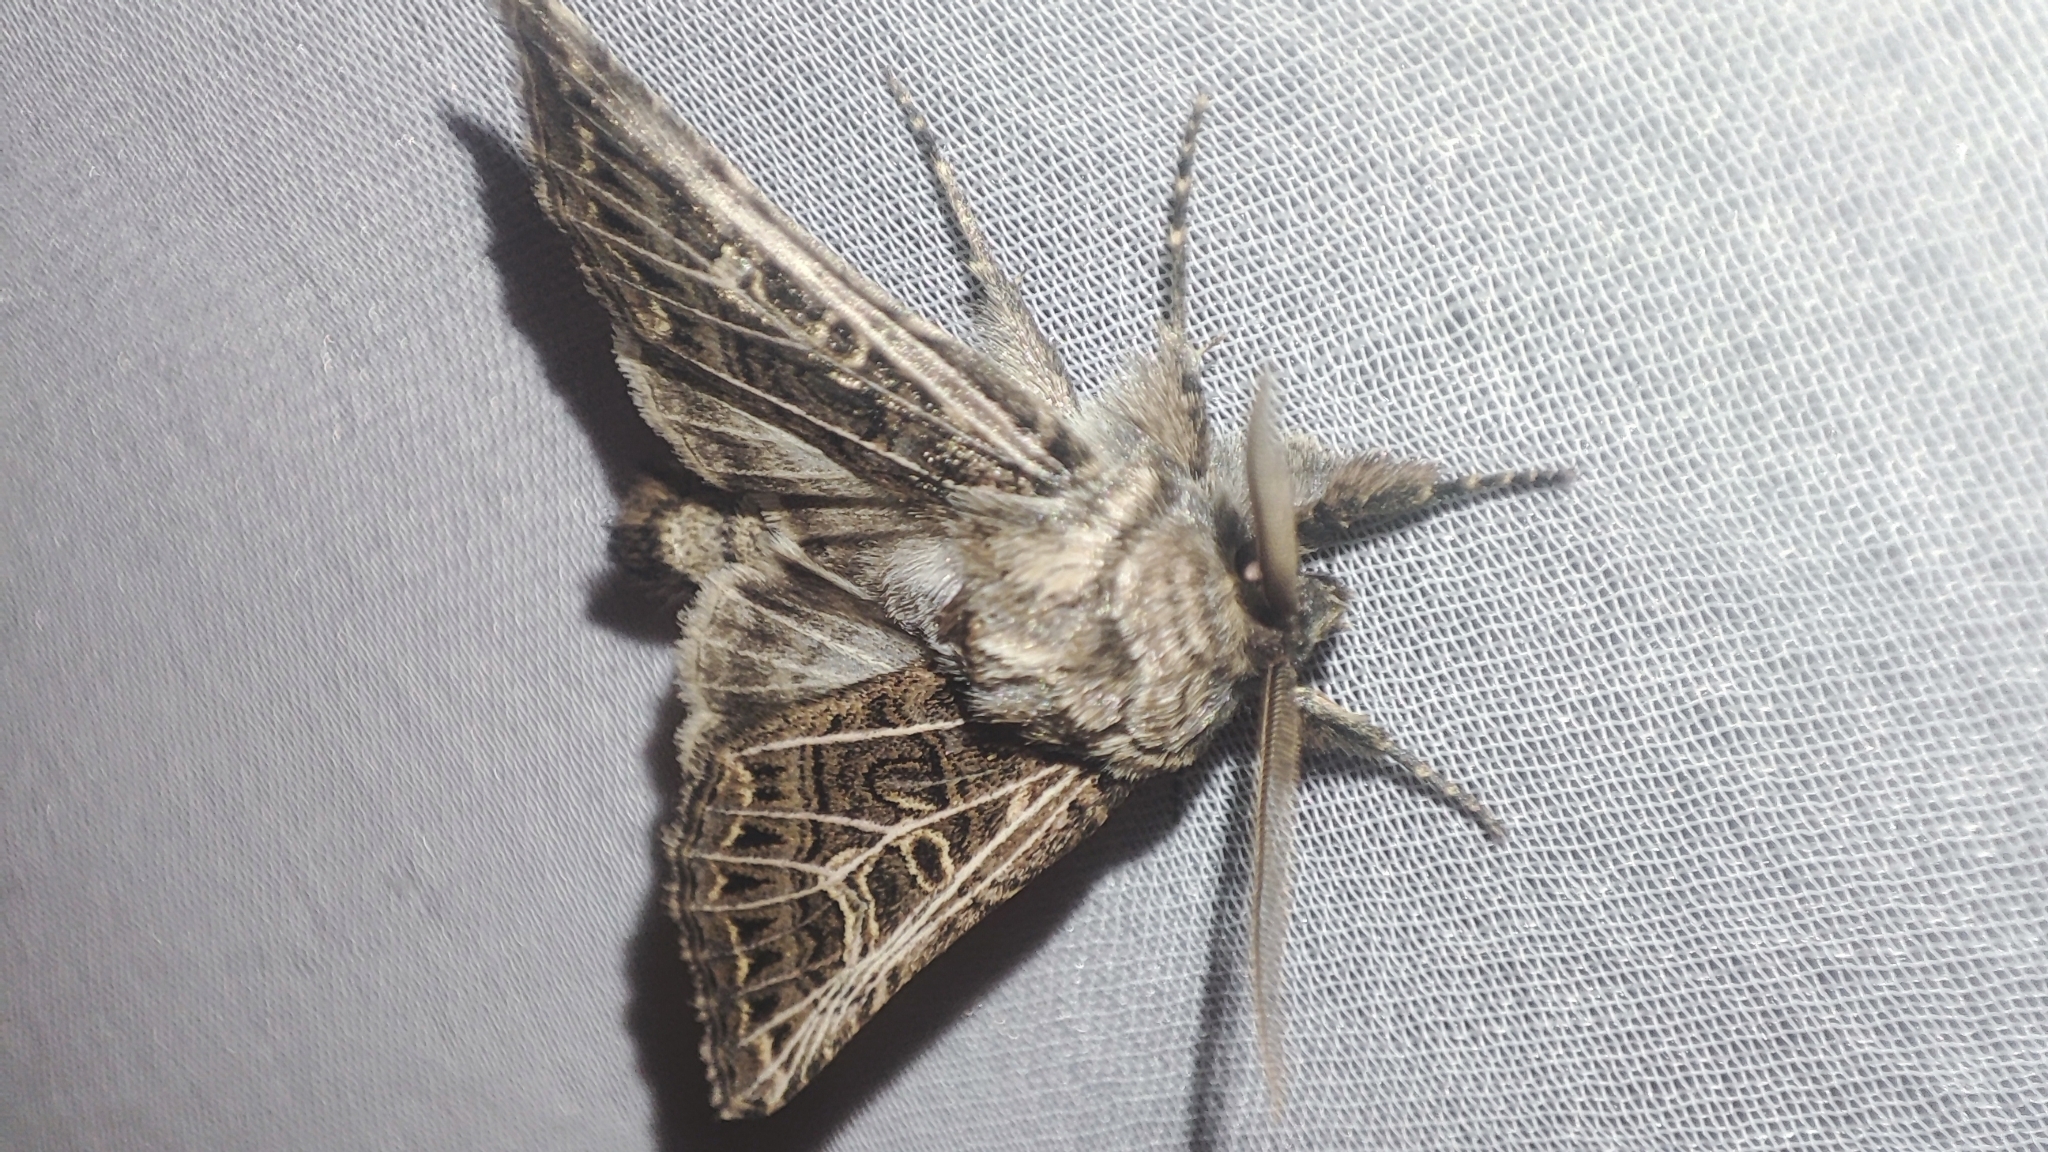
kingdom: Animalia
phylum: Arthropoda
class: Insecta
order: Lepidoptera
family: Noctuidae
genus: Tholera
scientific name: Tholera decimalis
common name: Feathered gothic
